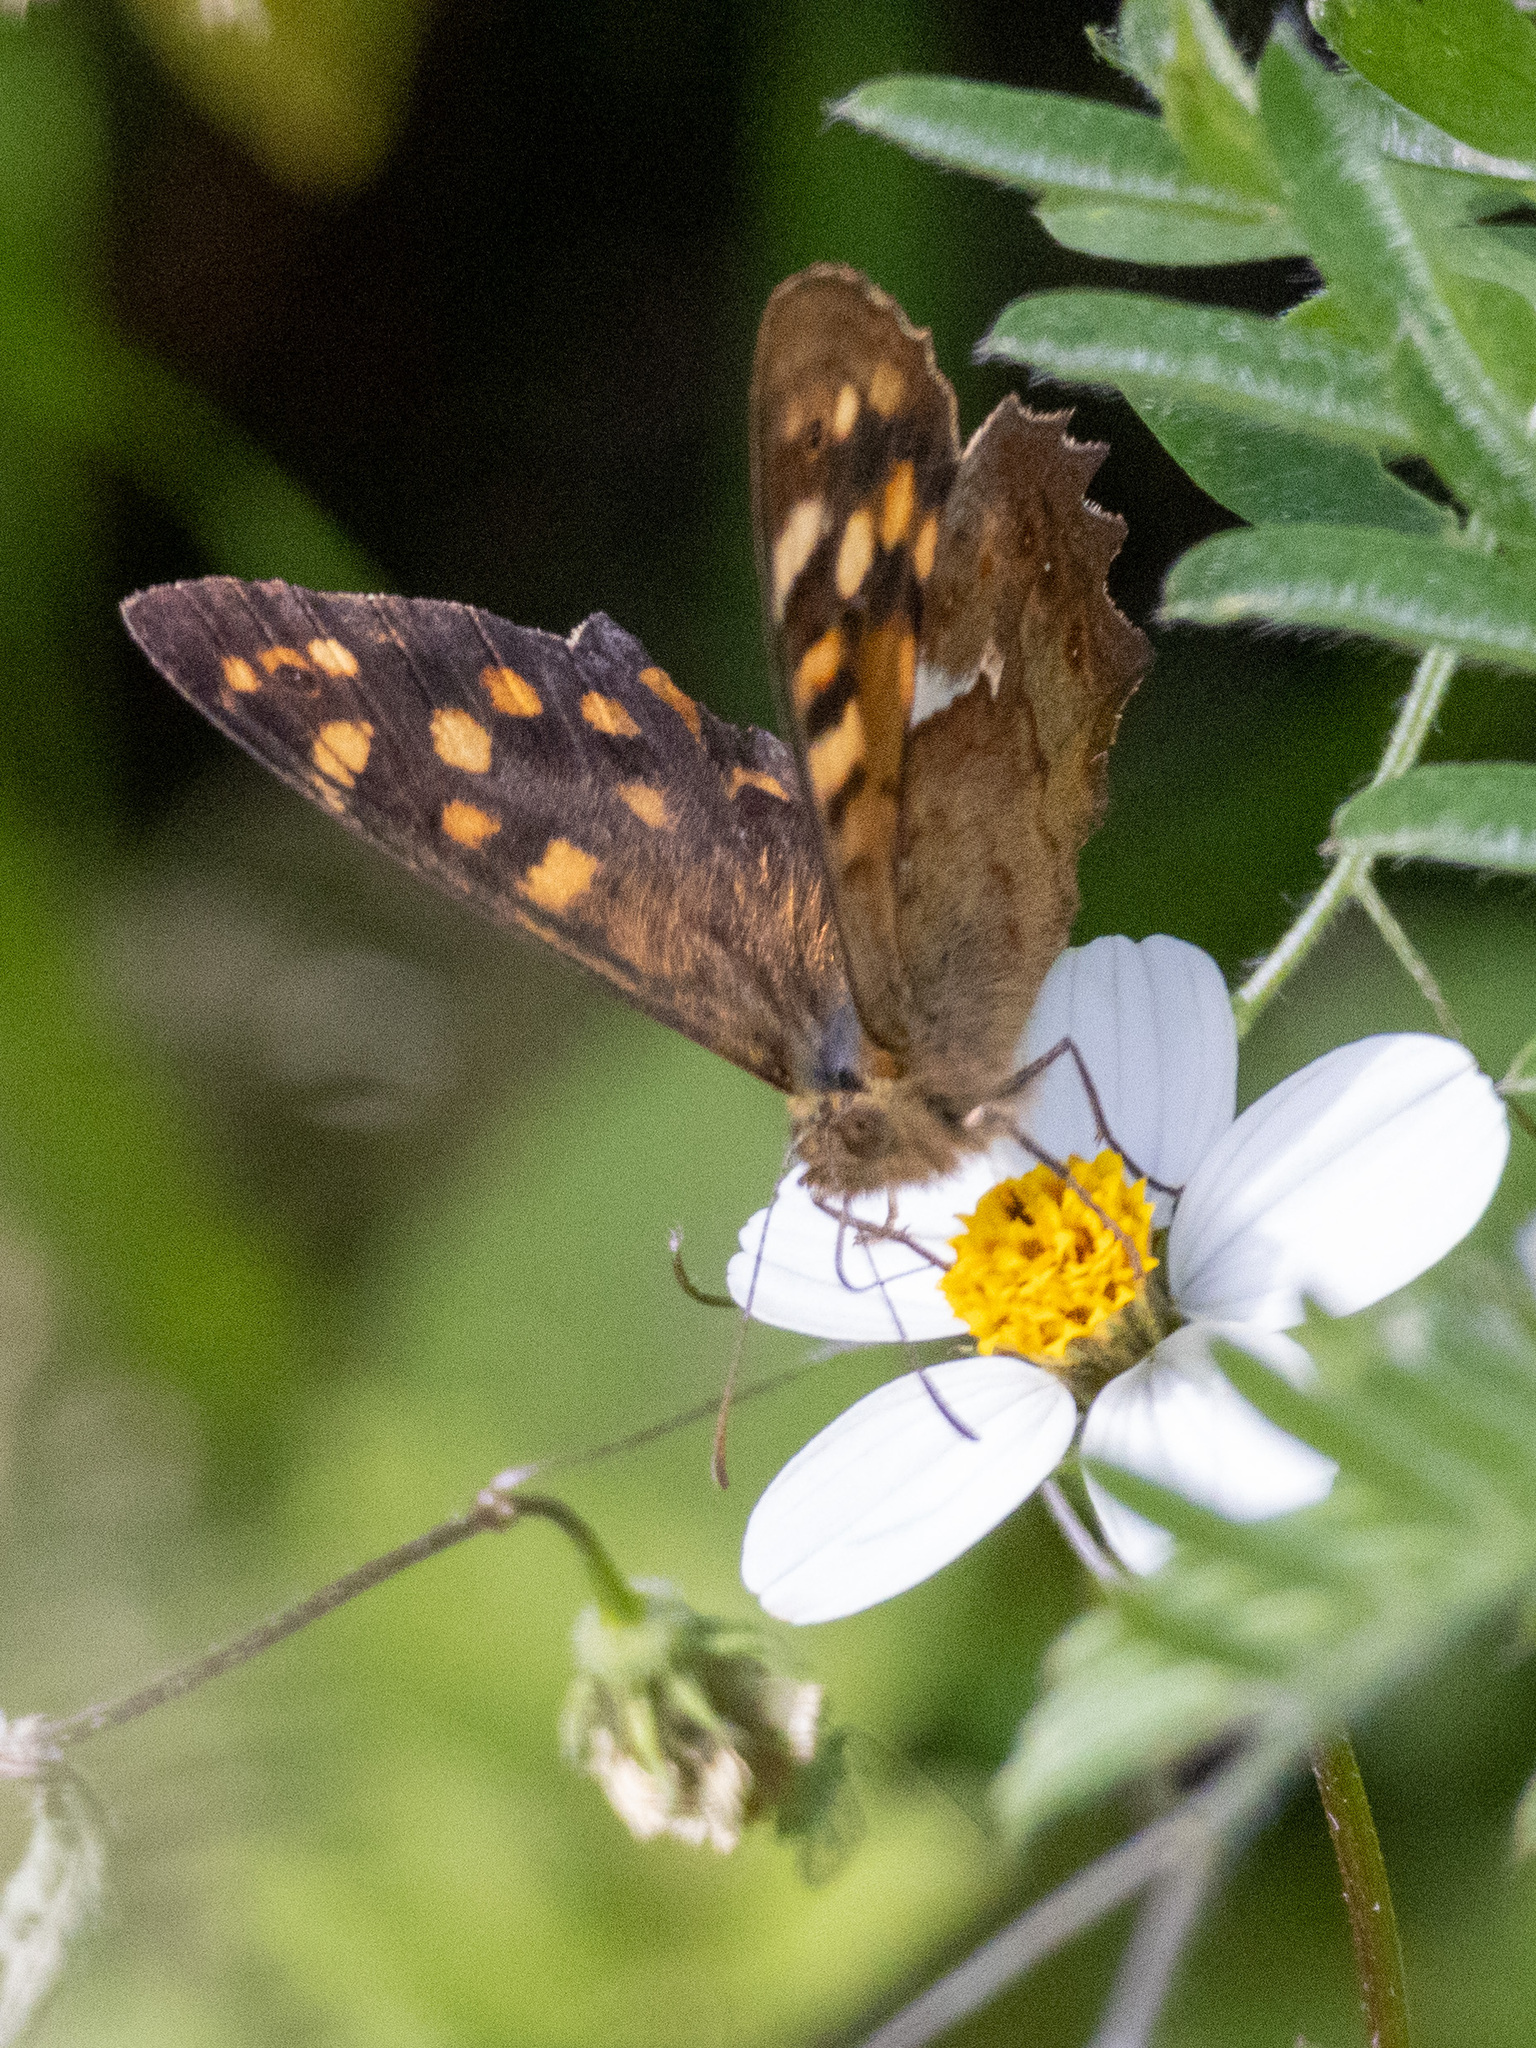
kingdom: Animalia
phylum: Arthropoda
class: Insecta
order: Lepidoptera
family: Nymphalidae
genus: Pararge
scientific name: Pararge aegeria
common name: Speckled wood
